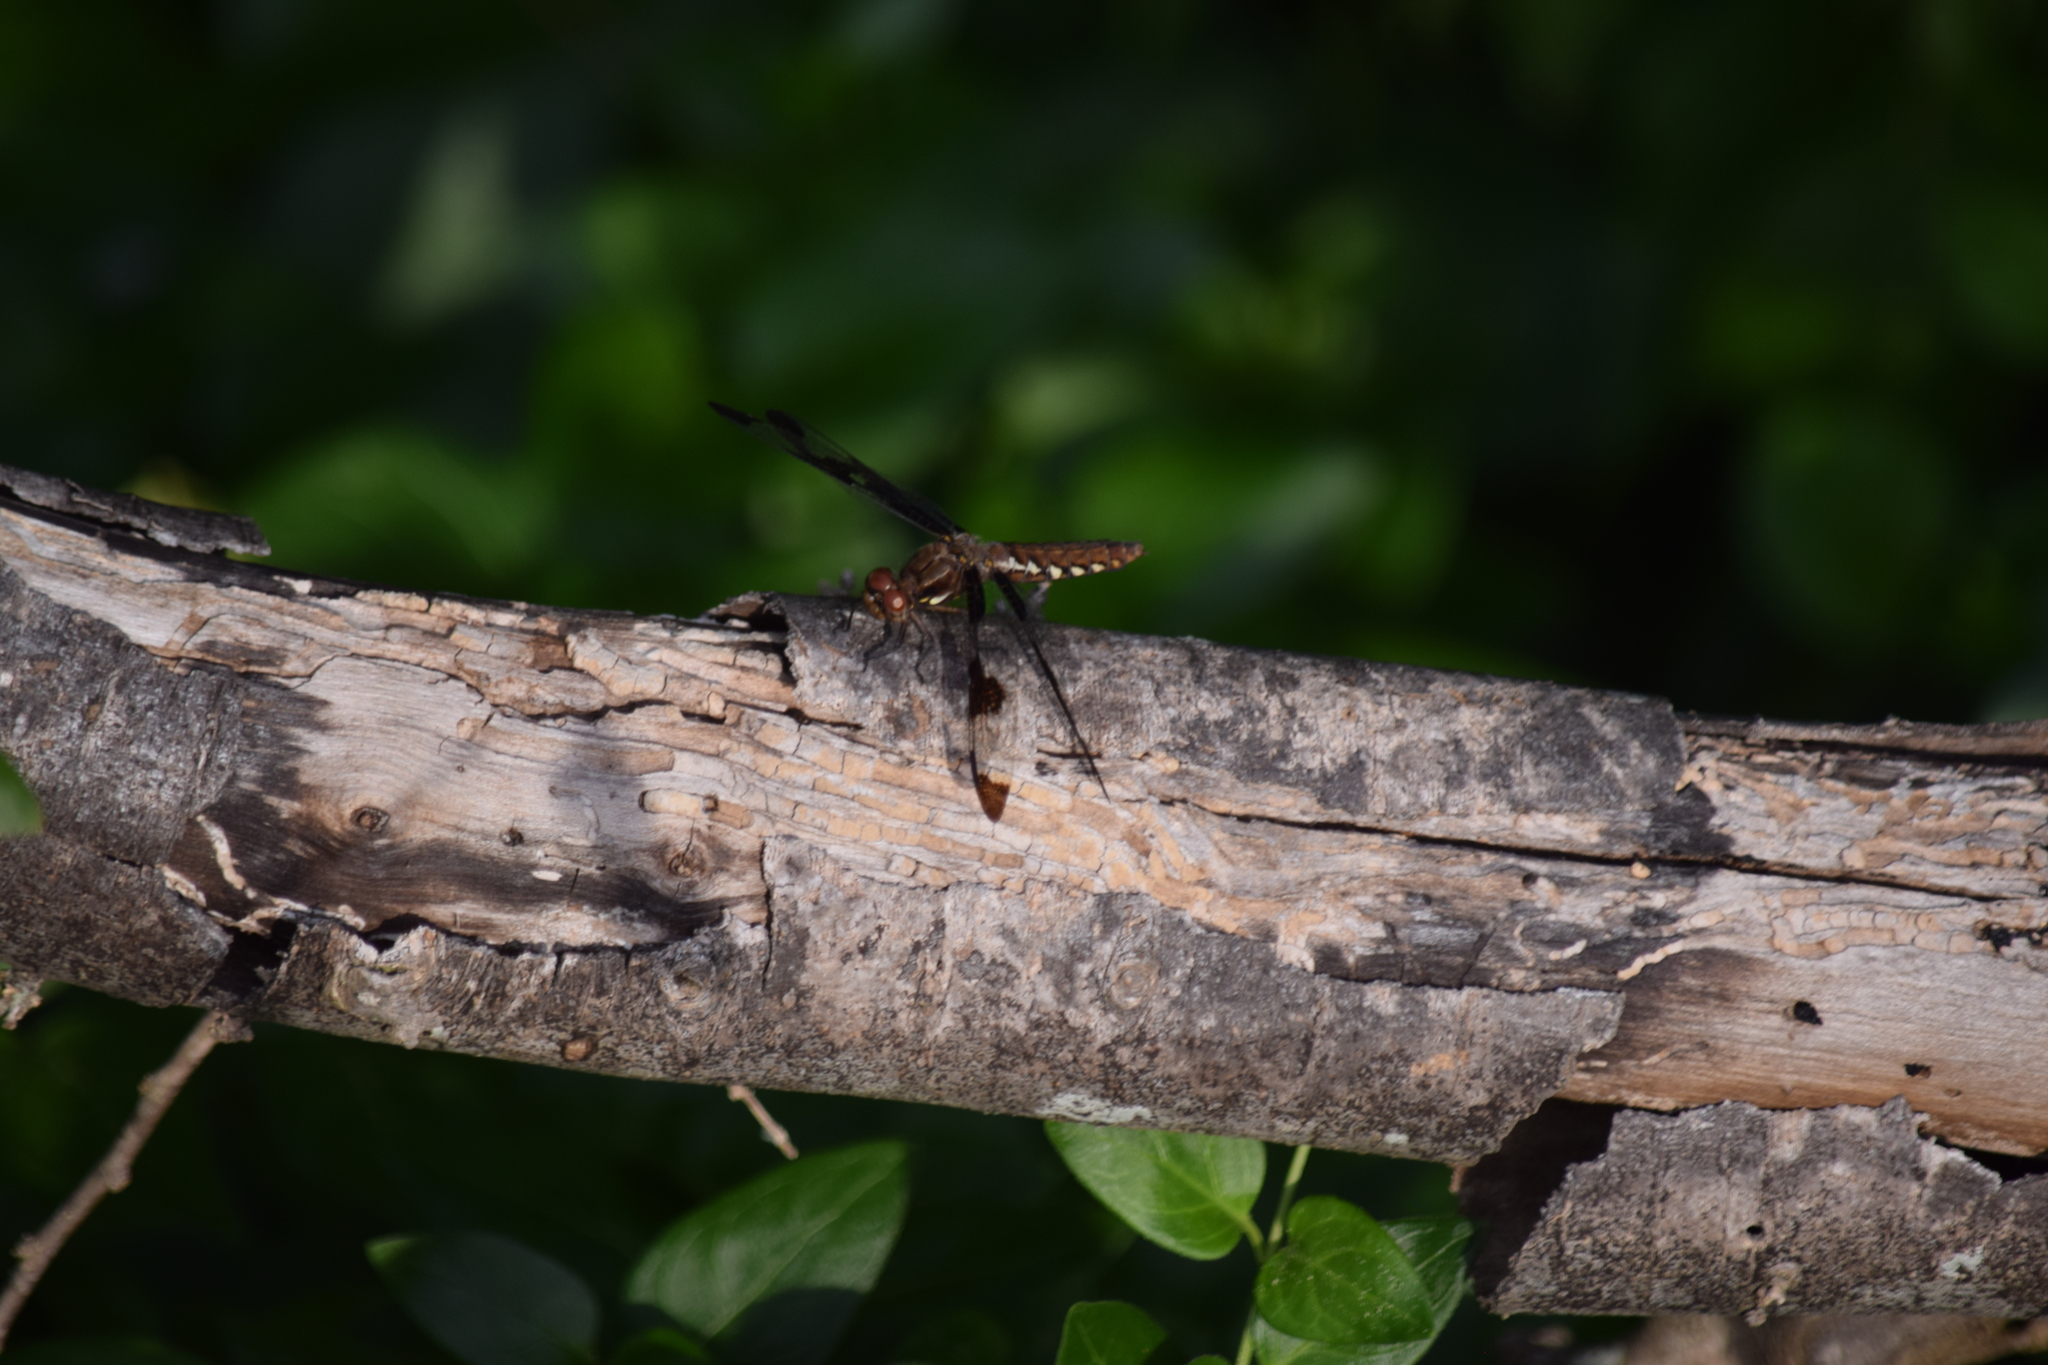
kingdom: Animalia
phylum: Arthropoda
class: Insecta
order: Odonata
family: Libellulidae
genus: Plathemis
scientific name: Plathemis lydia
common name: Common whitetail
